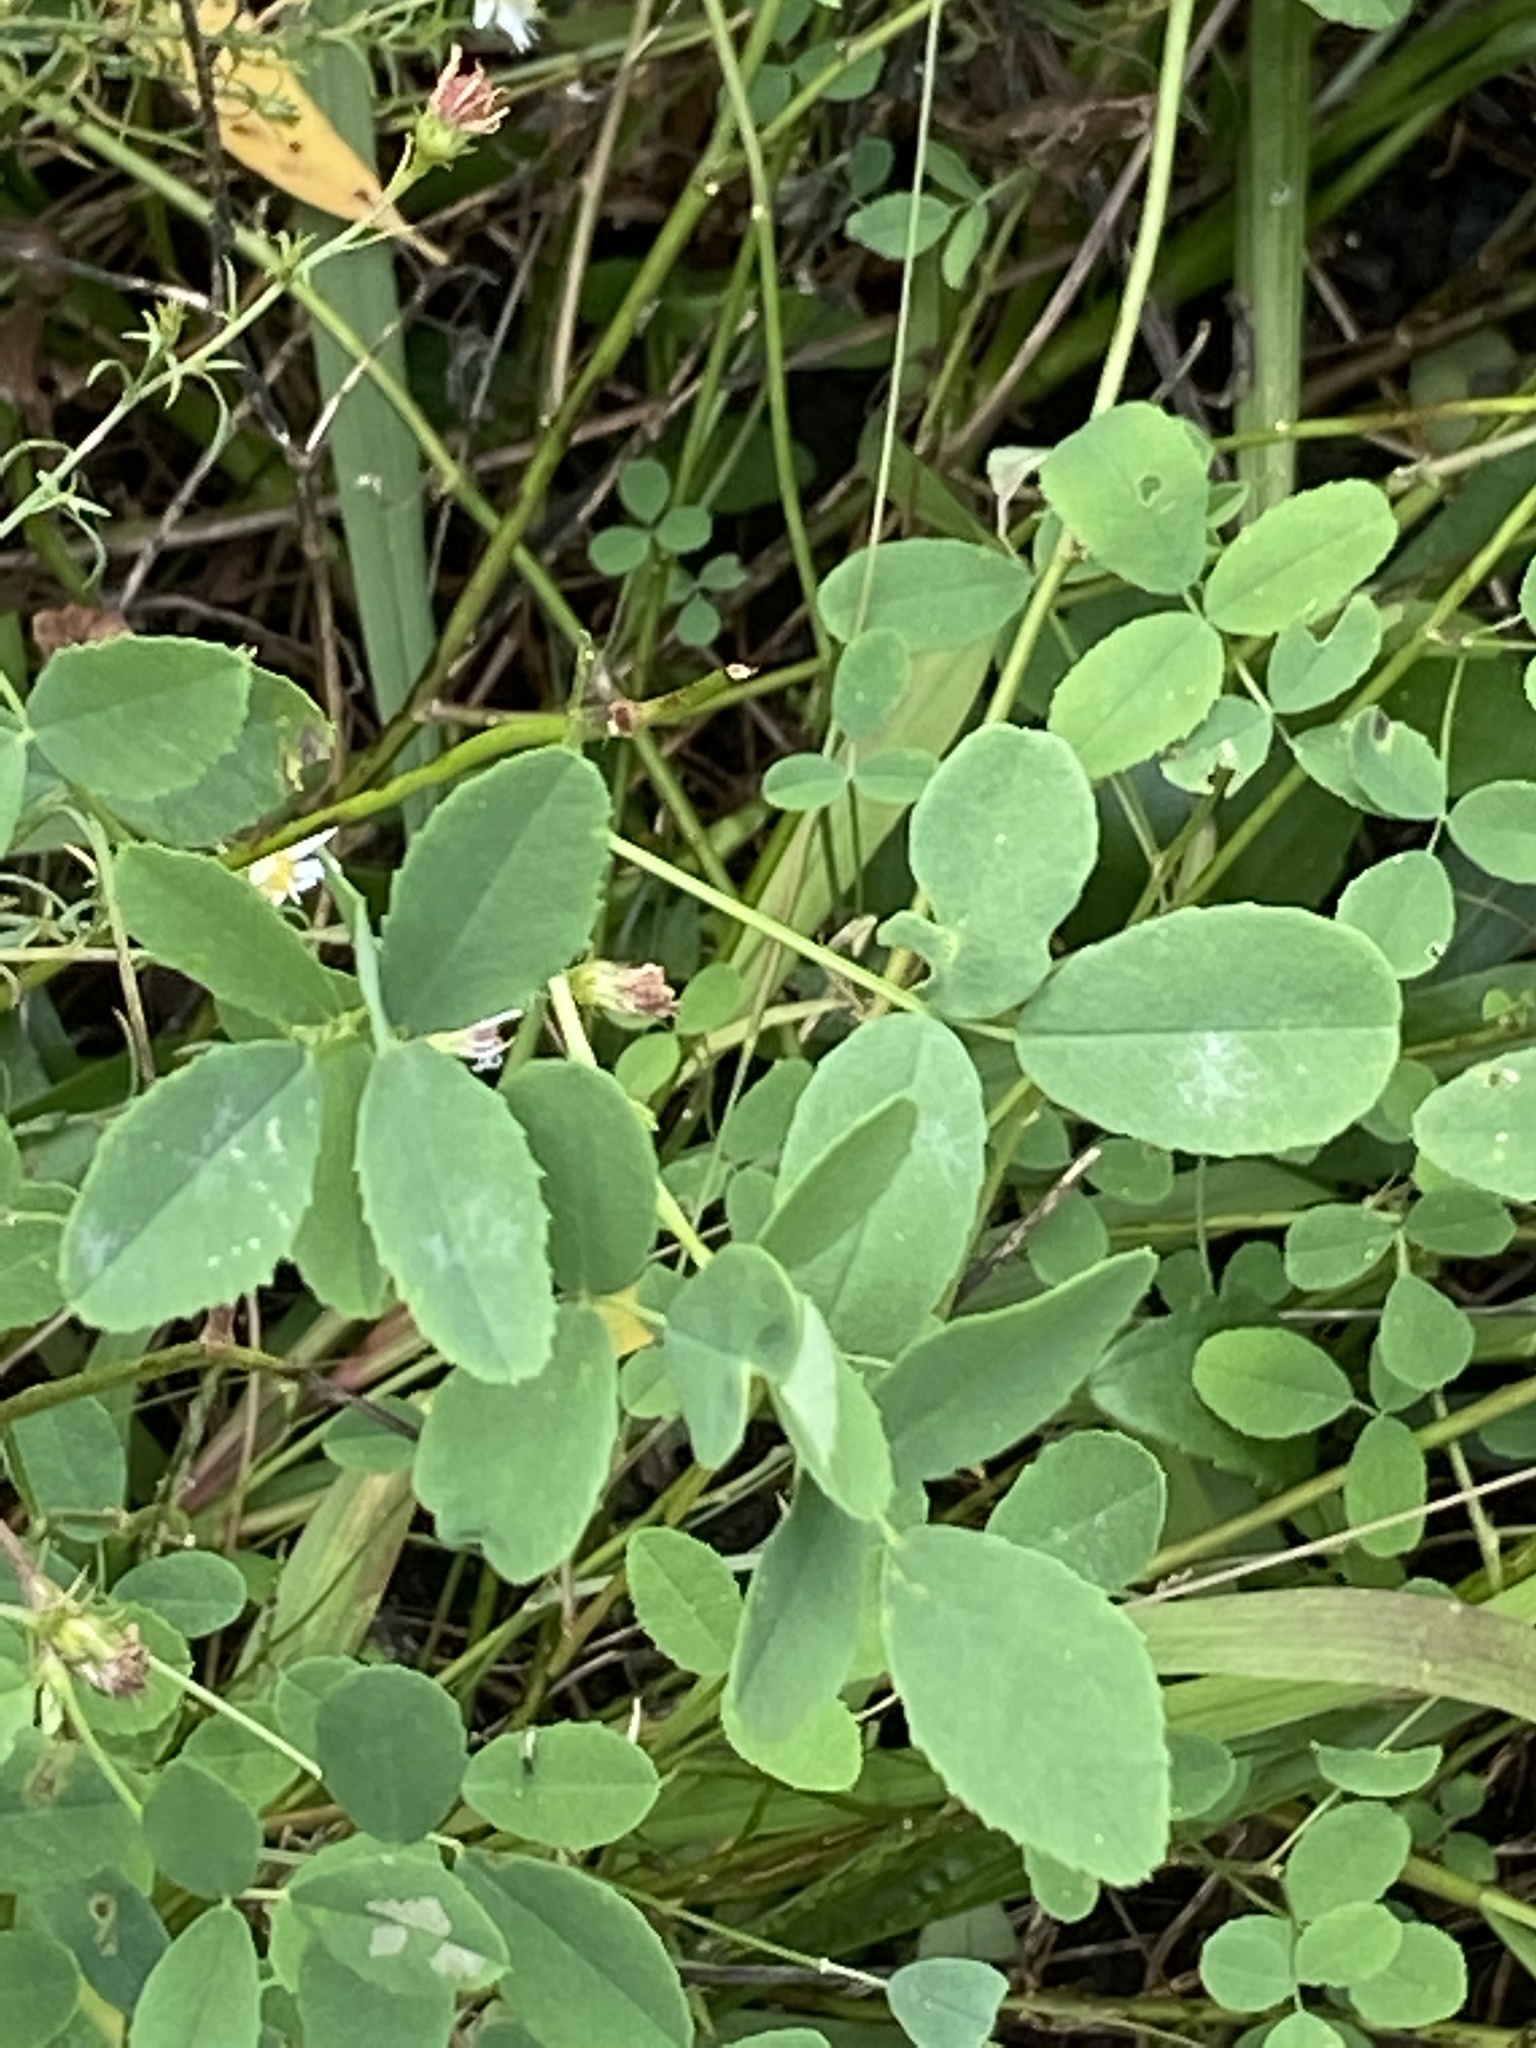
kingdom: Plantae
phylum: Tracheophyta
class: Magnoliopsida
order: Fabales
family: Fabaceae
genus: Melilotus
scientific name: Melilotus
